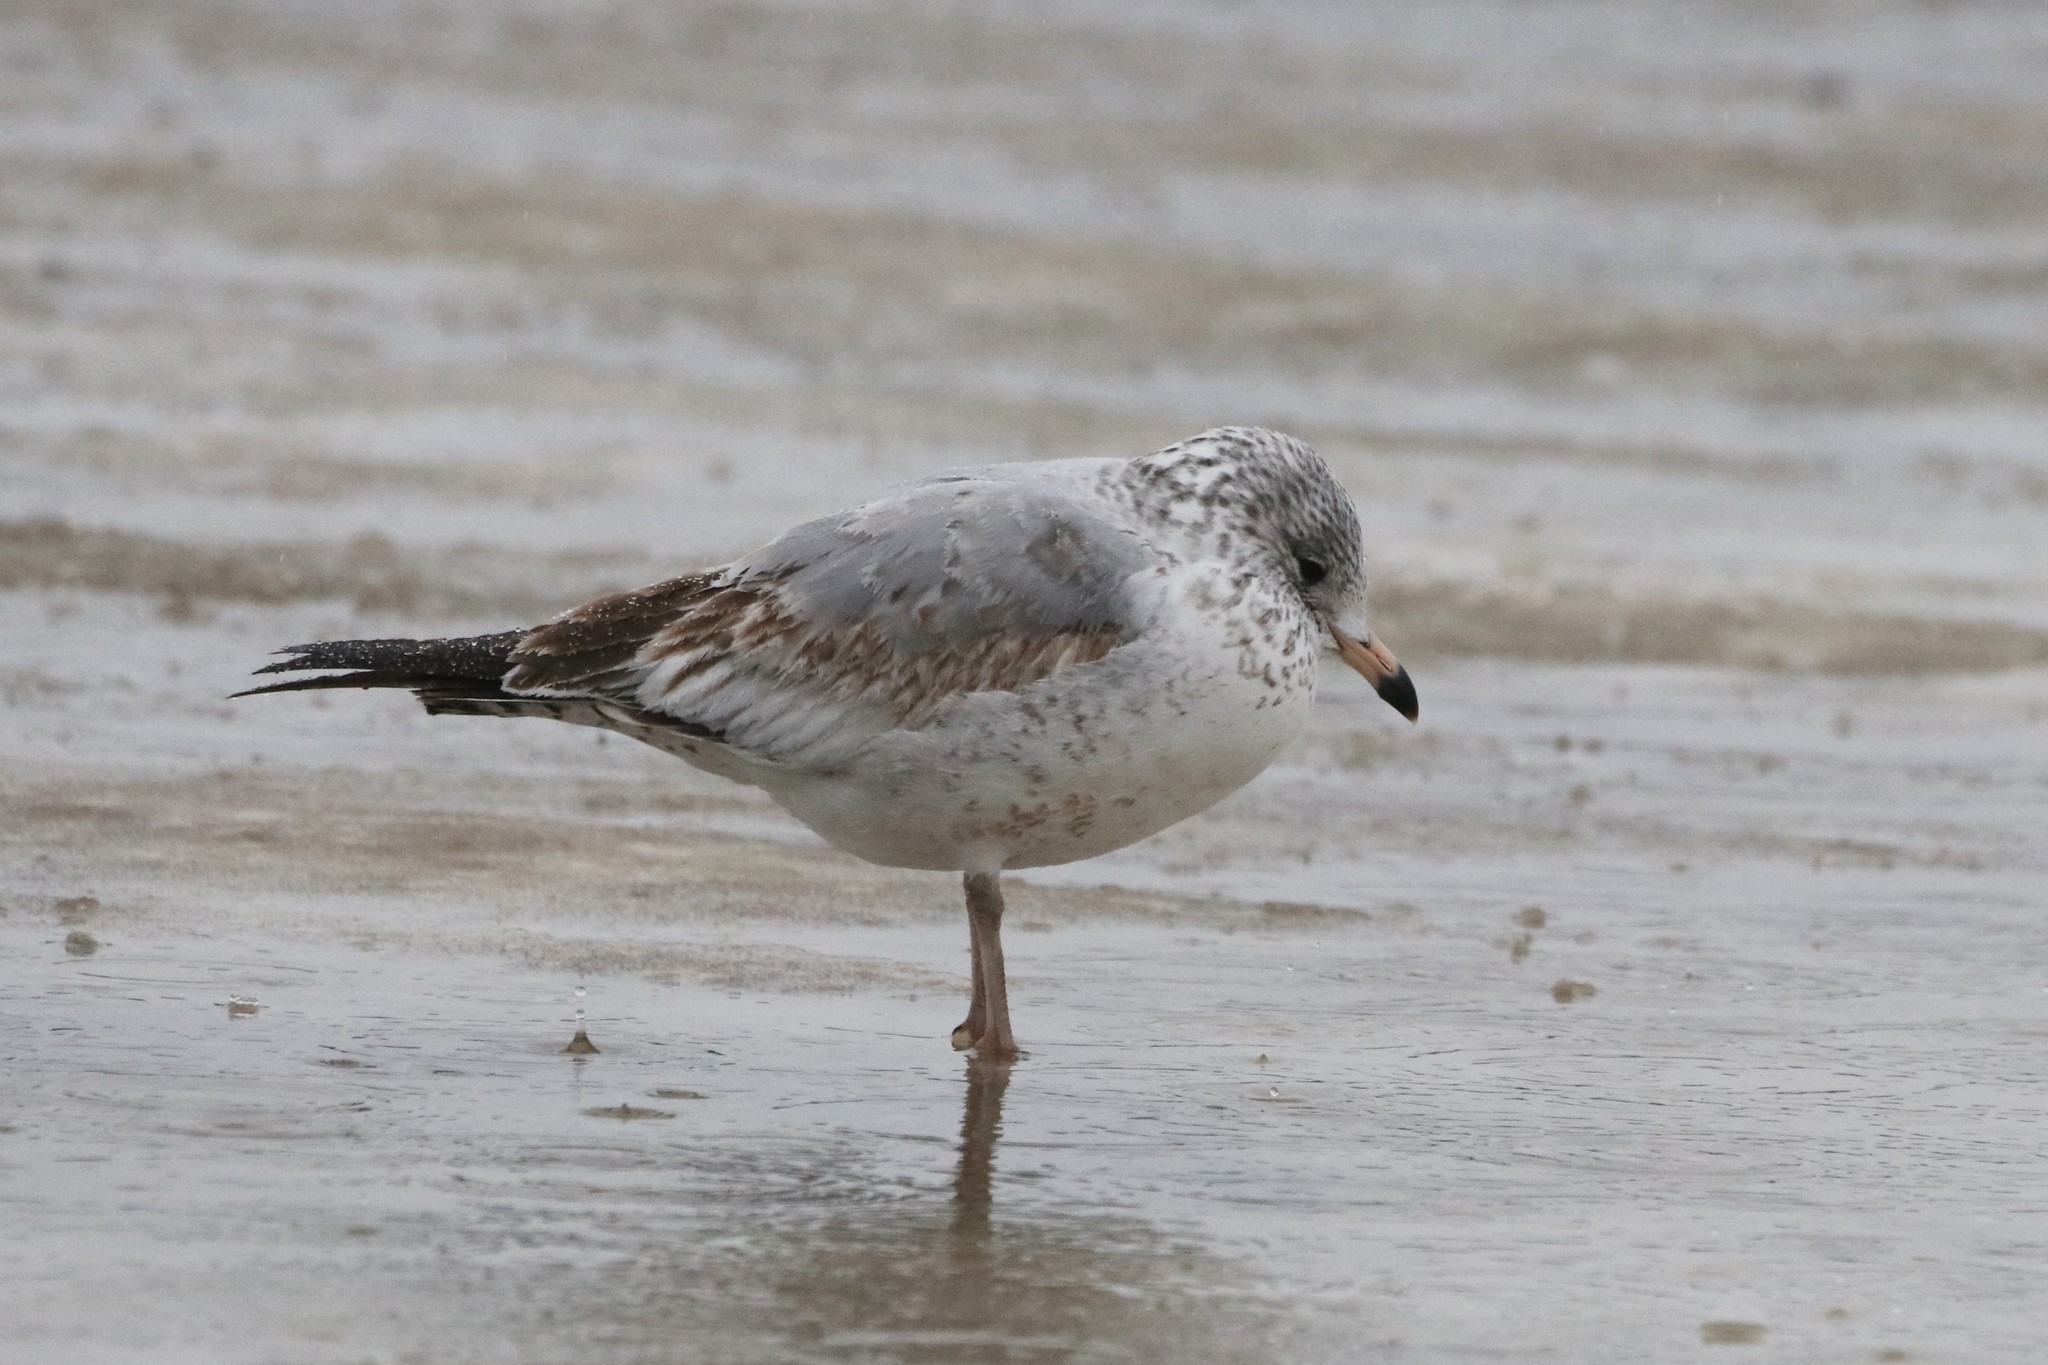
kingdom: Animalia
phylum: Chordata
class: Aves
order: Charadriiformes
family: Laridae
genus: Larus
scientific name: Larus delawarensis
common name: Ring-billed gull
